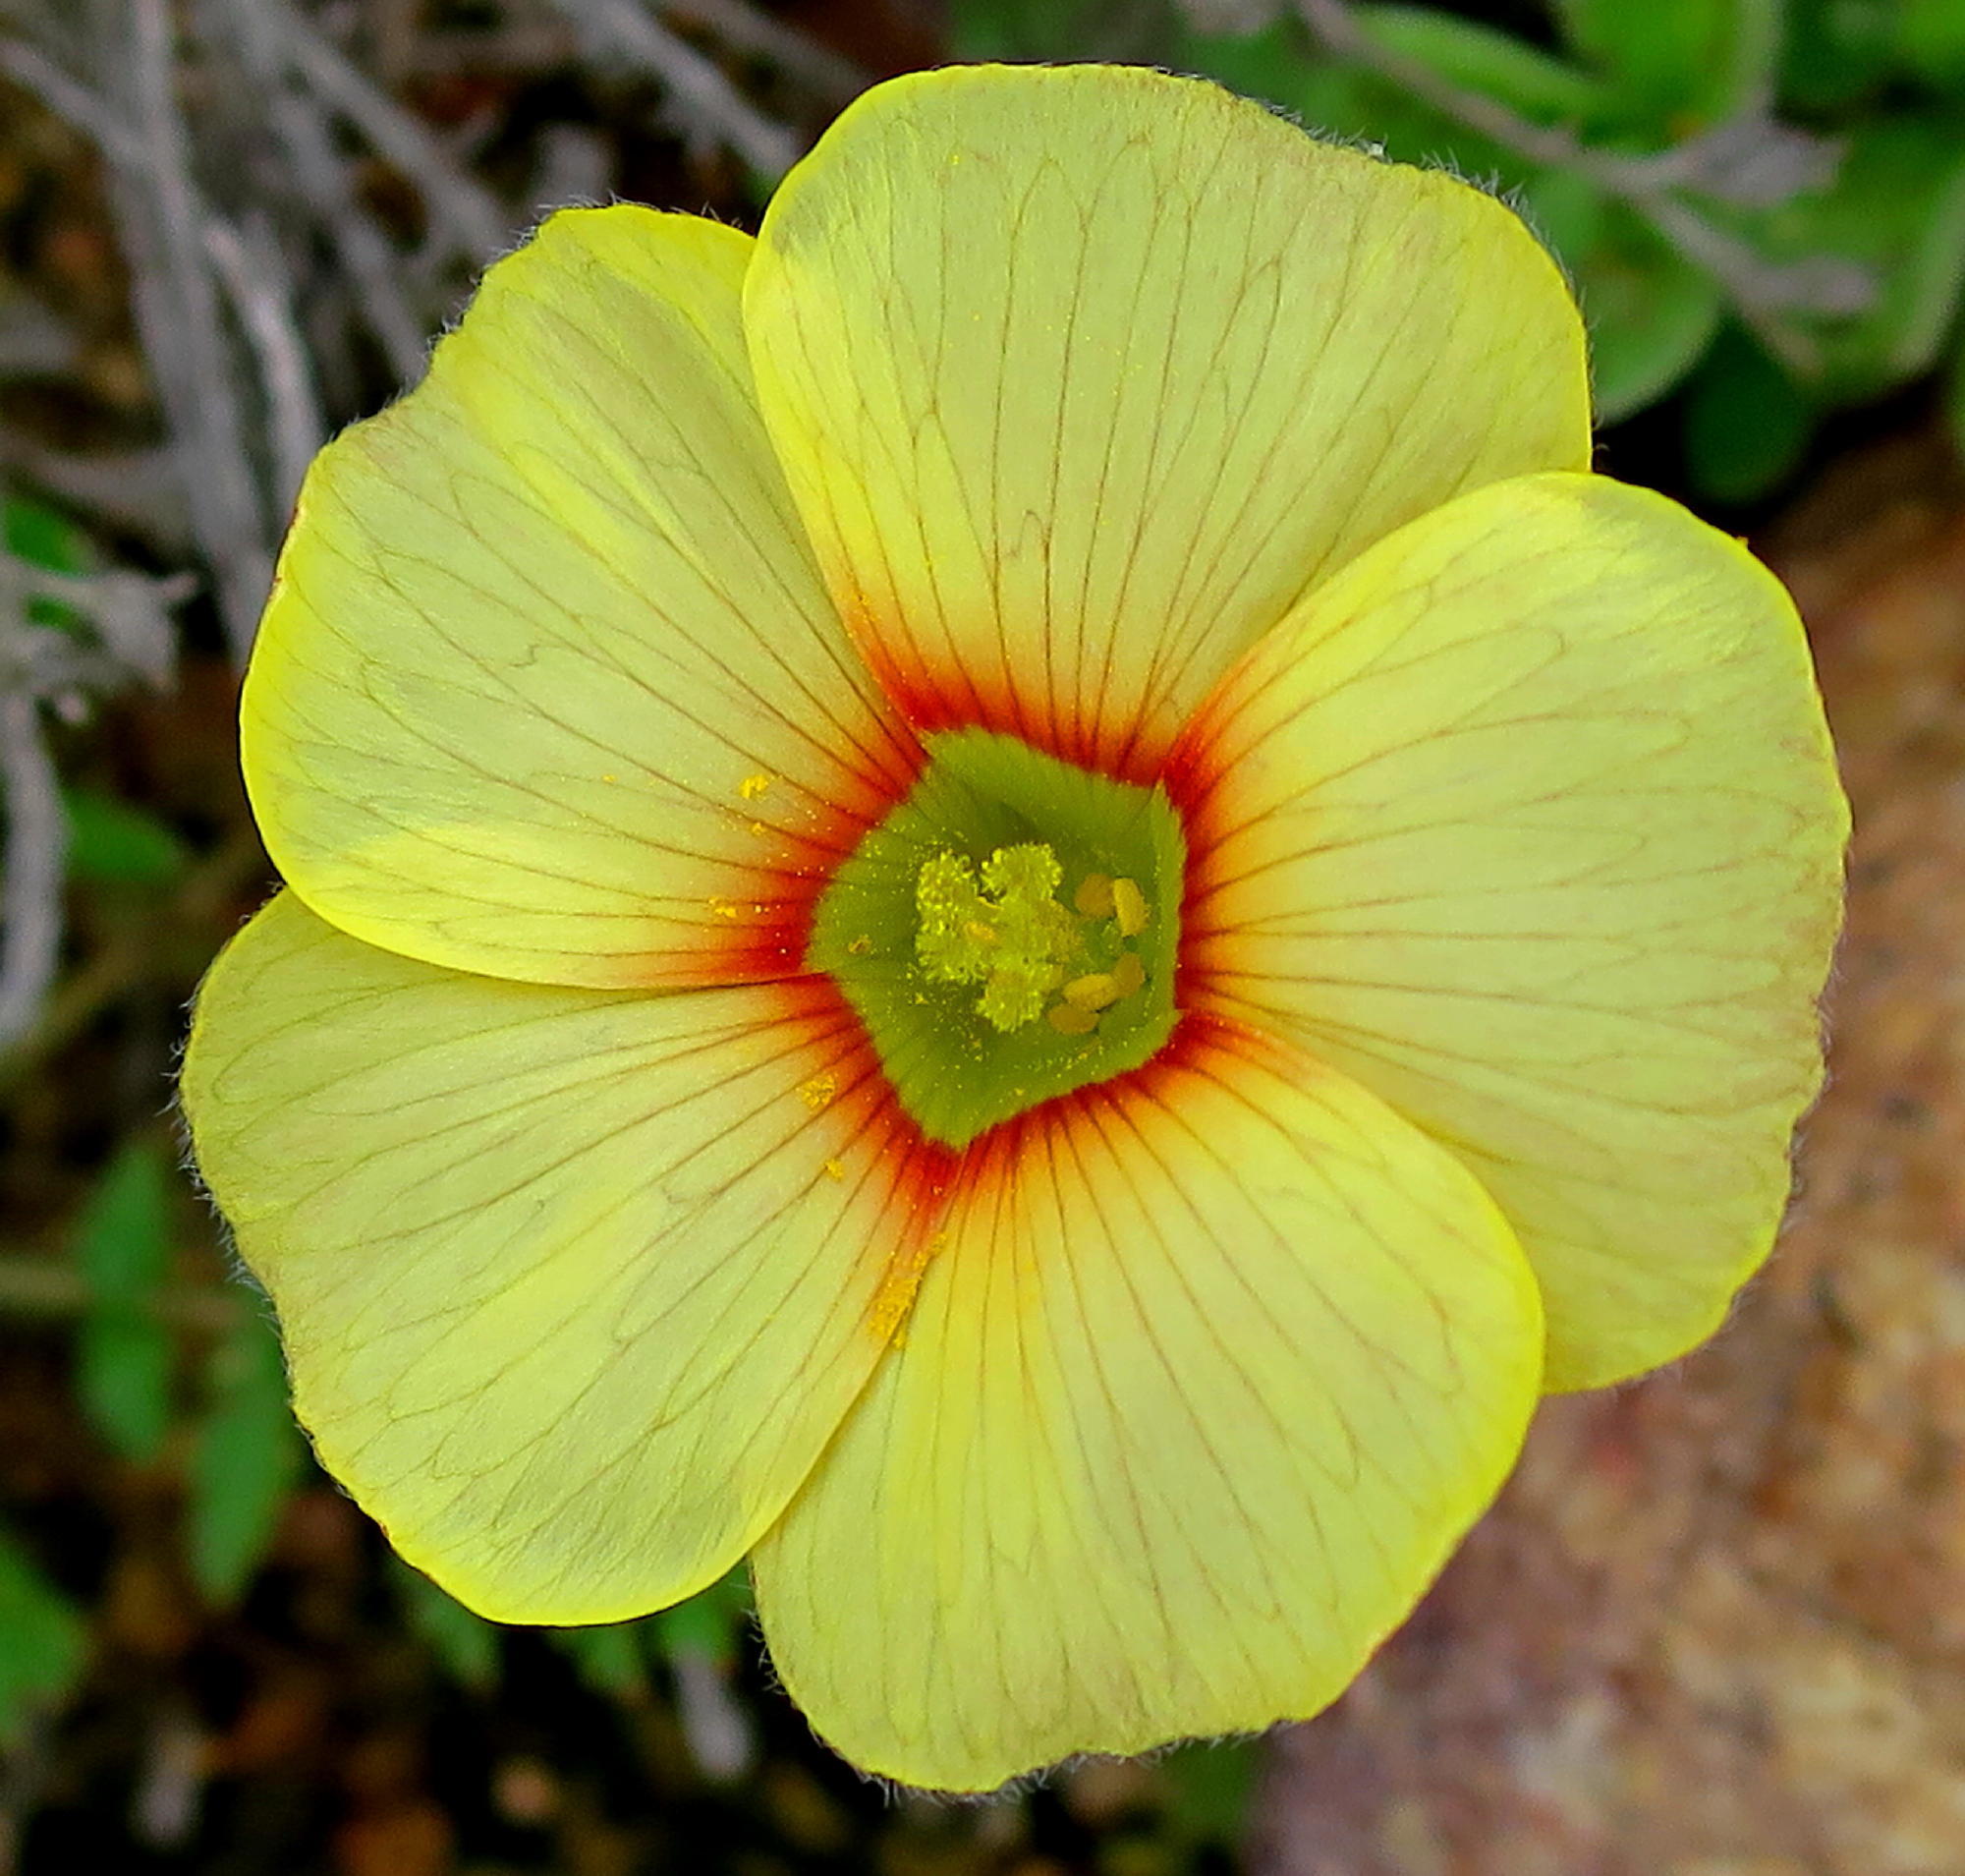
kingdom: Plantae
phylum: Tracheophyta
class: Magnoliopsida
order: Oxalidales
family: Oxalidaceae
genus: Oxalis
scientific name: Oxalis obtusa
